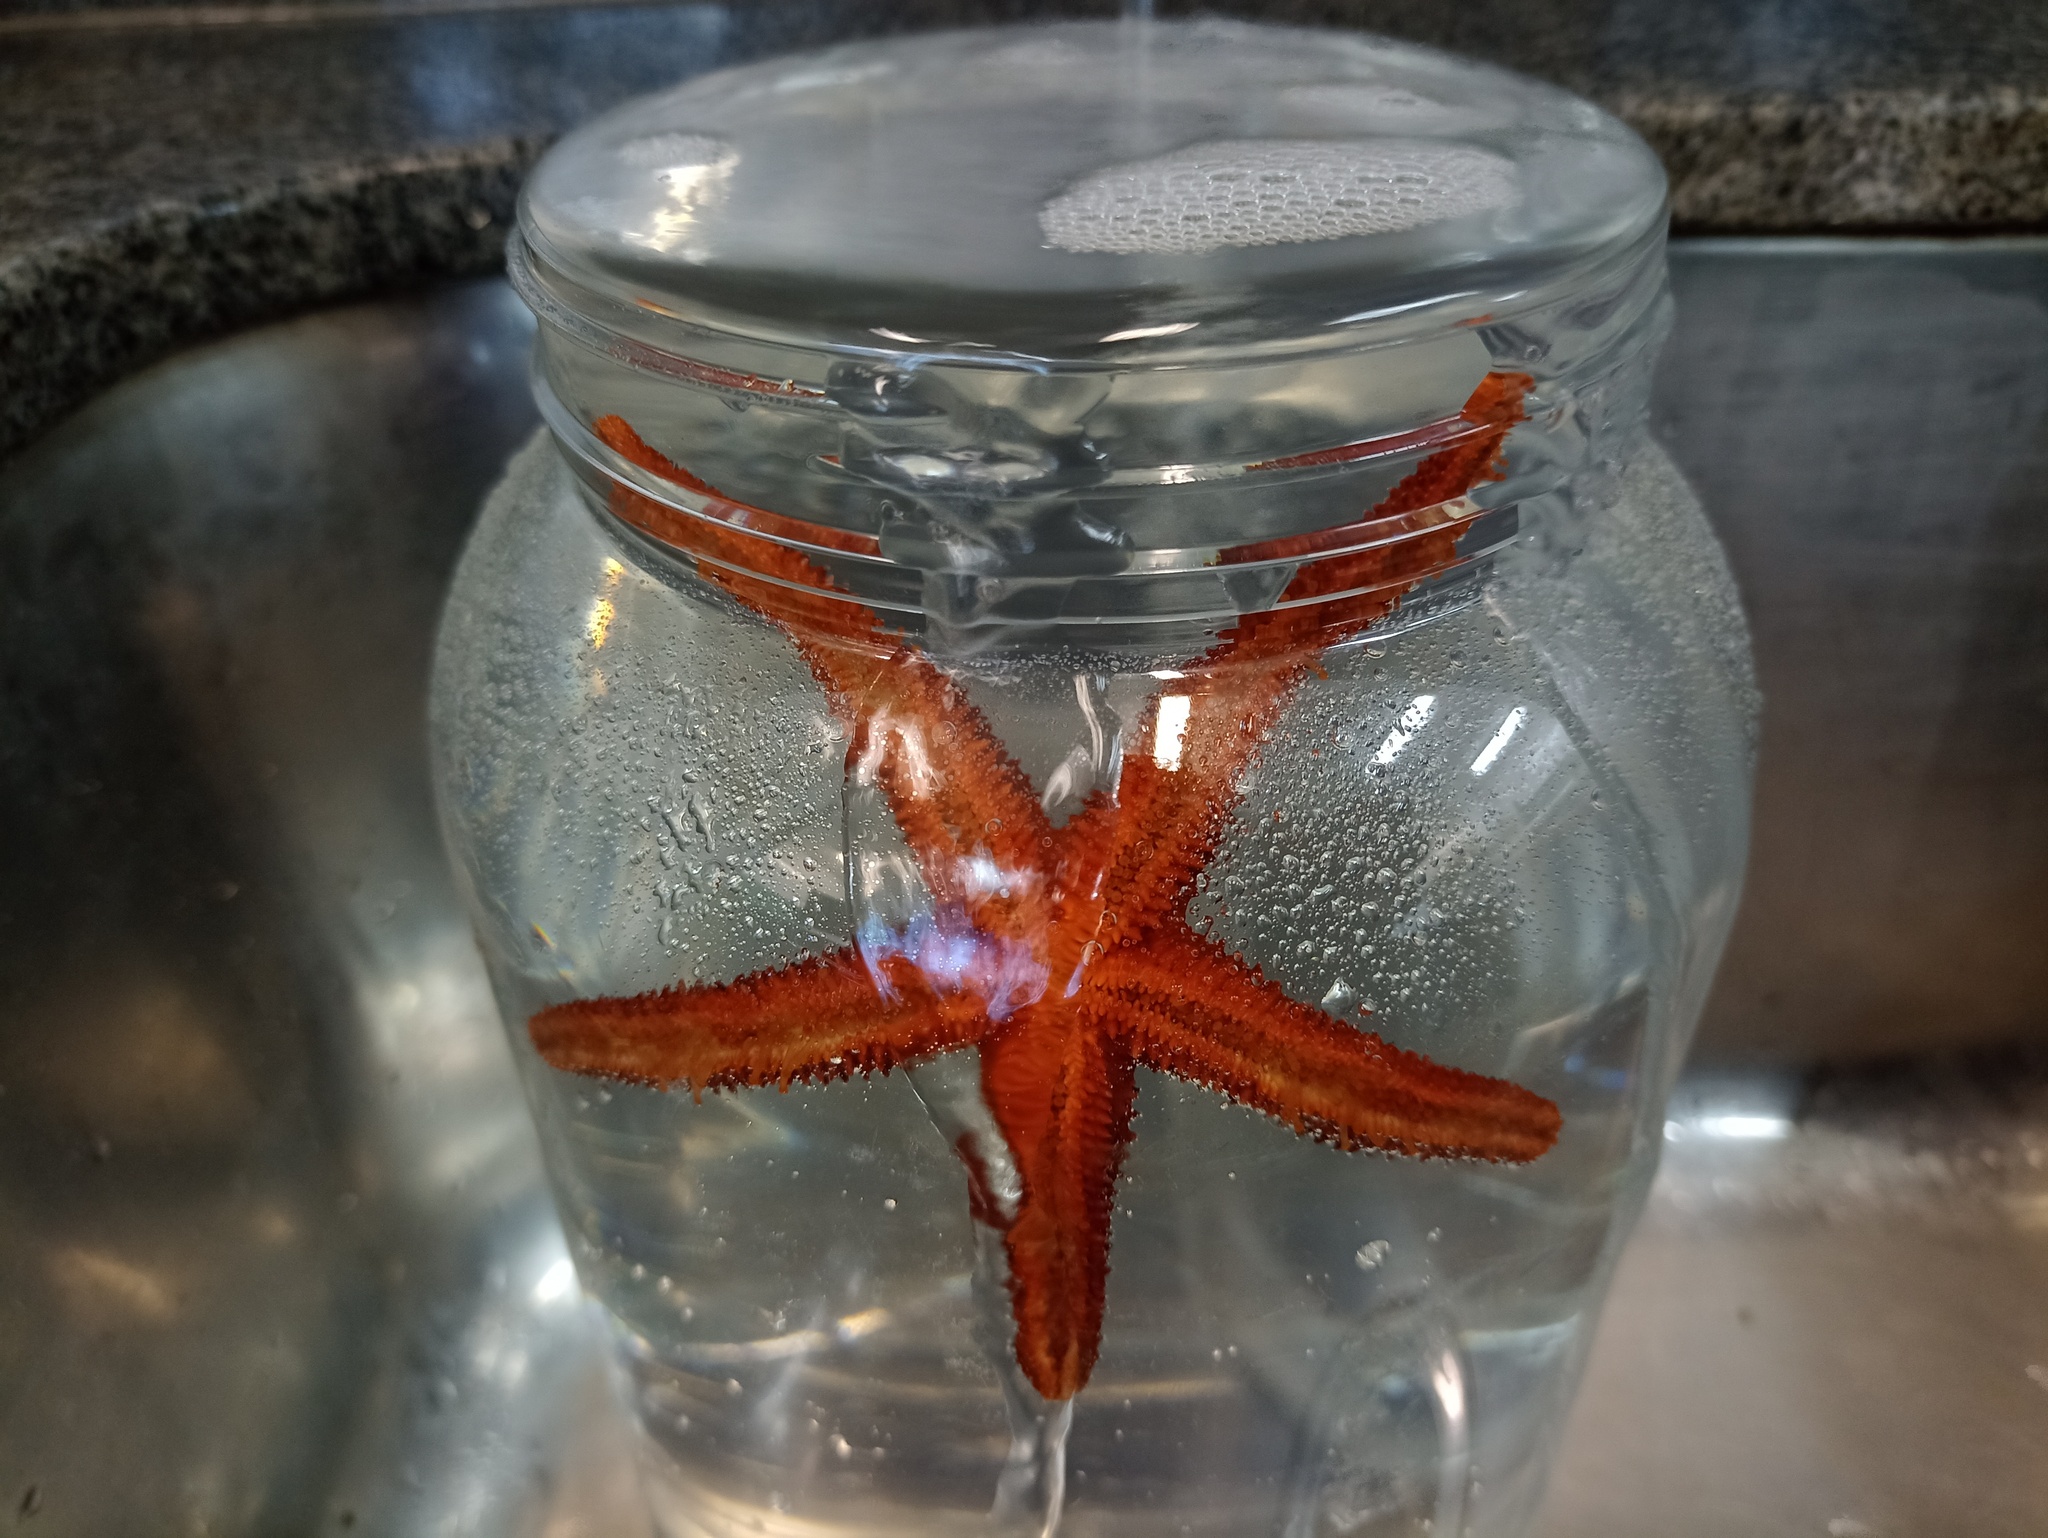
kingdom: Animalia
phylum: Echinodermata
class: Asteroidea
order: Spinulosida
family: Echinasteridae
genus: Echinaster
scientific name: Echinaster brasiliensis
